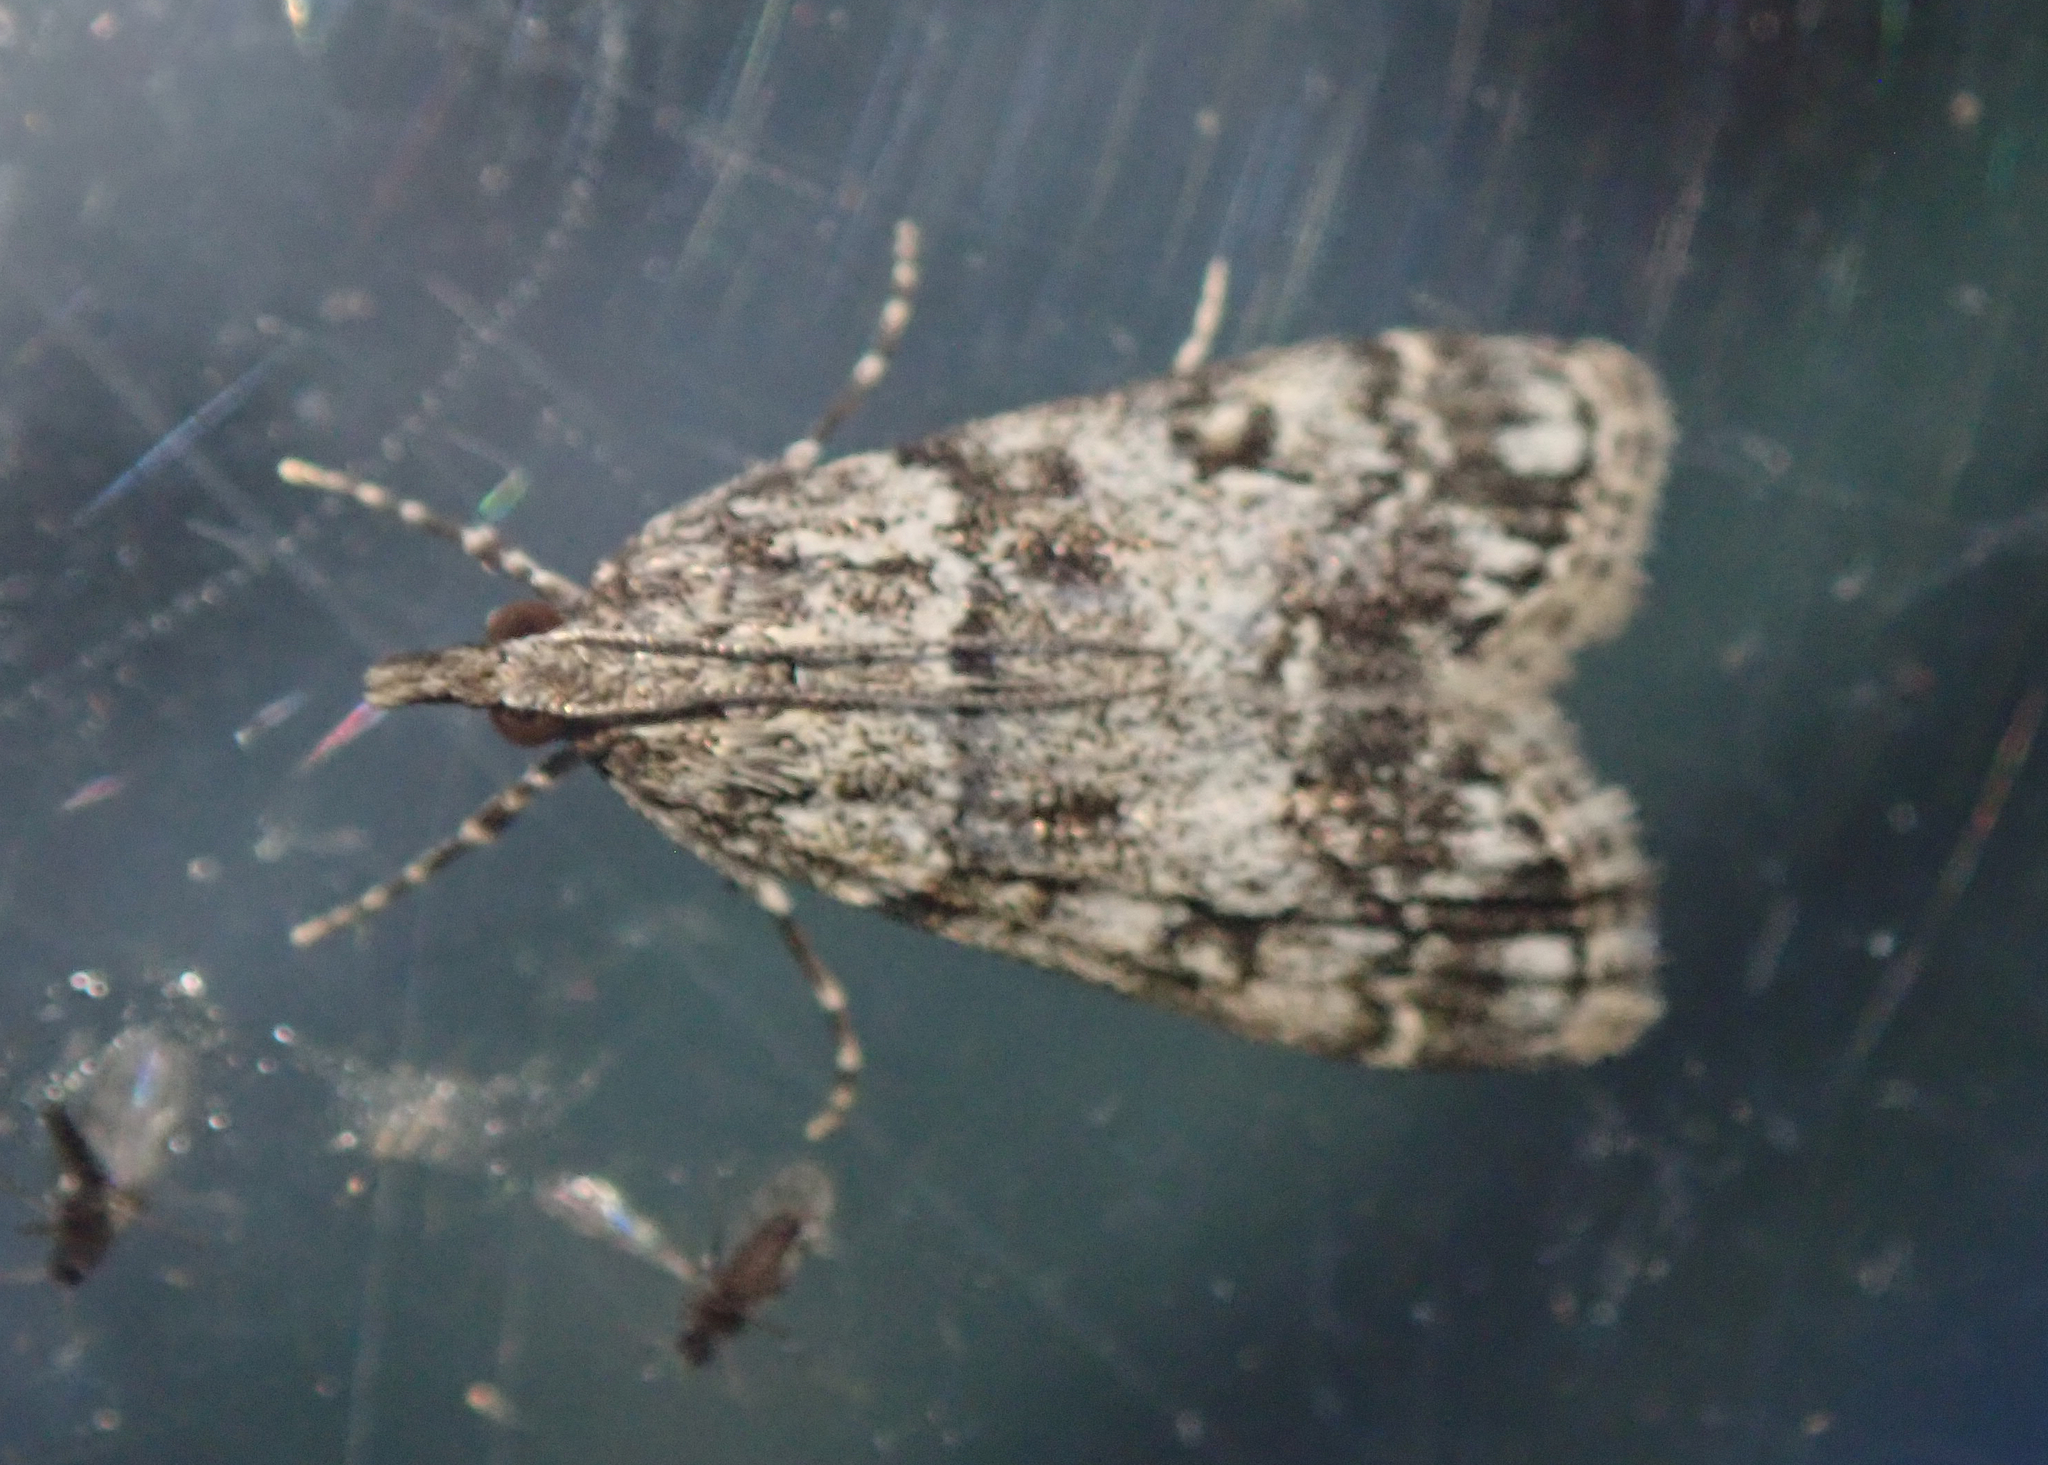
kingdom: Animalia
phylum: Arthropoda
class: Insecta
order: Lepidoptera
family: Crambidae
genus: Eudonia
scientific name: Eudonia lacustrata
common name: Little grey
